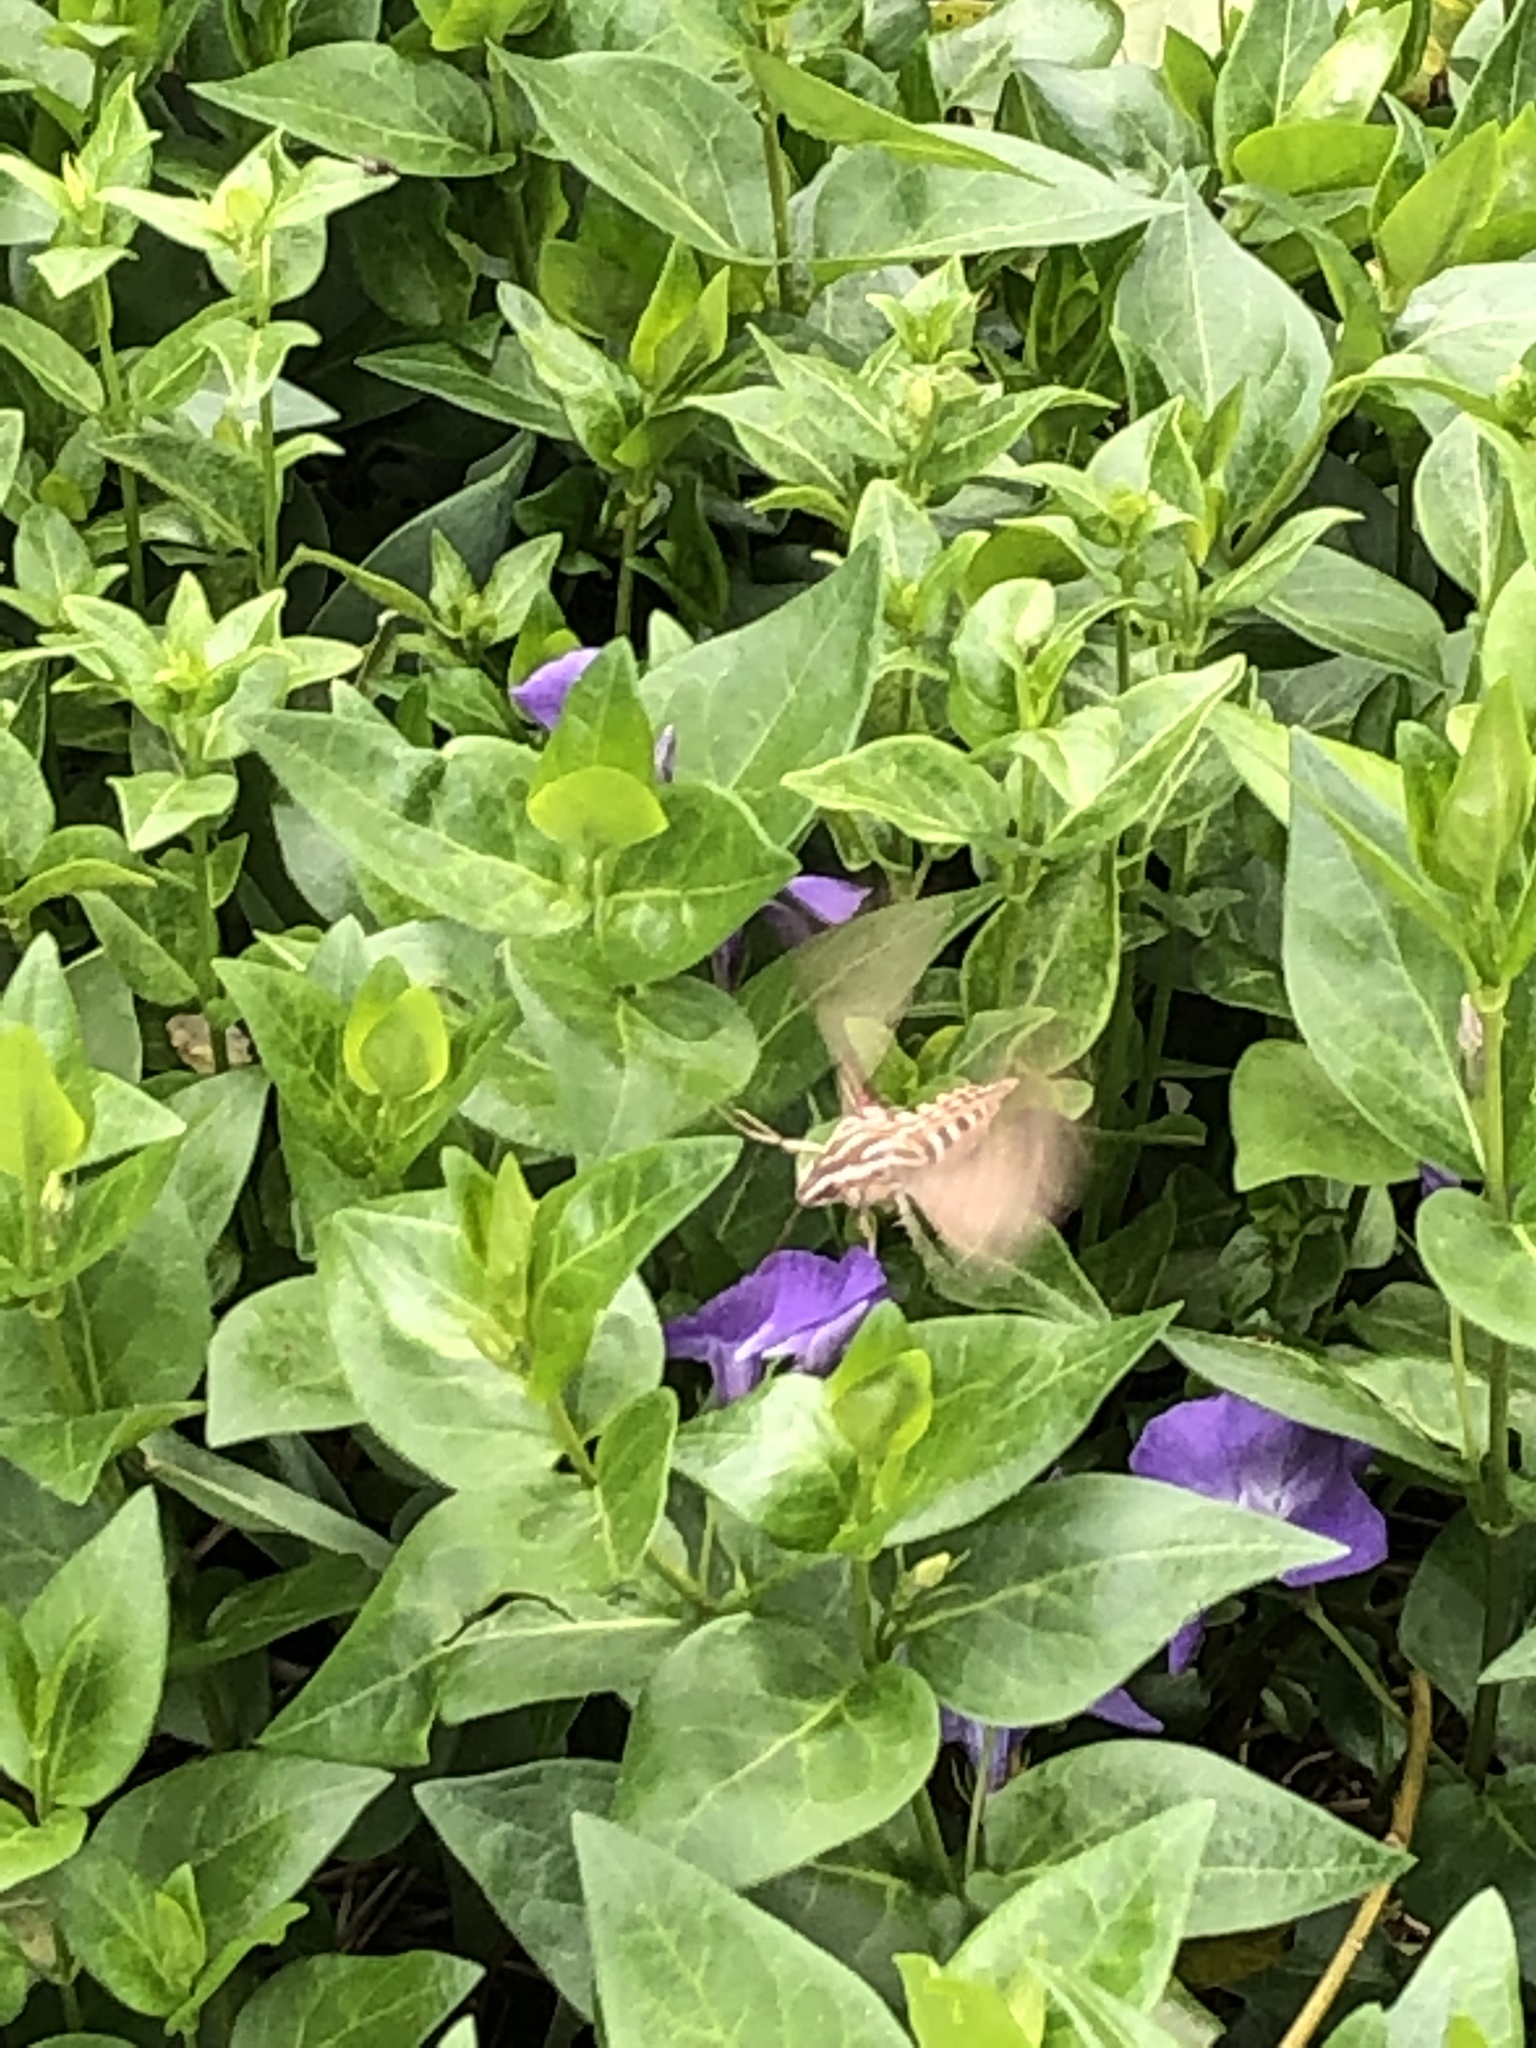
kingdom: Animalia
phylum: Arthropoda
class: Insecta
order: Lepidoptera
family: Sphingidae
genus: Hyles
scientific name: Hyles lineata
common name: White-lined sphinx
